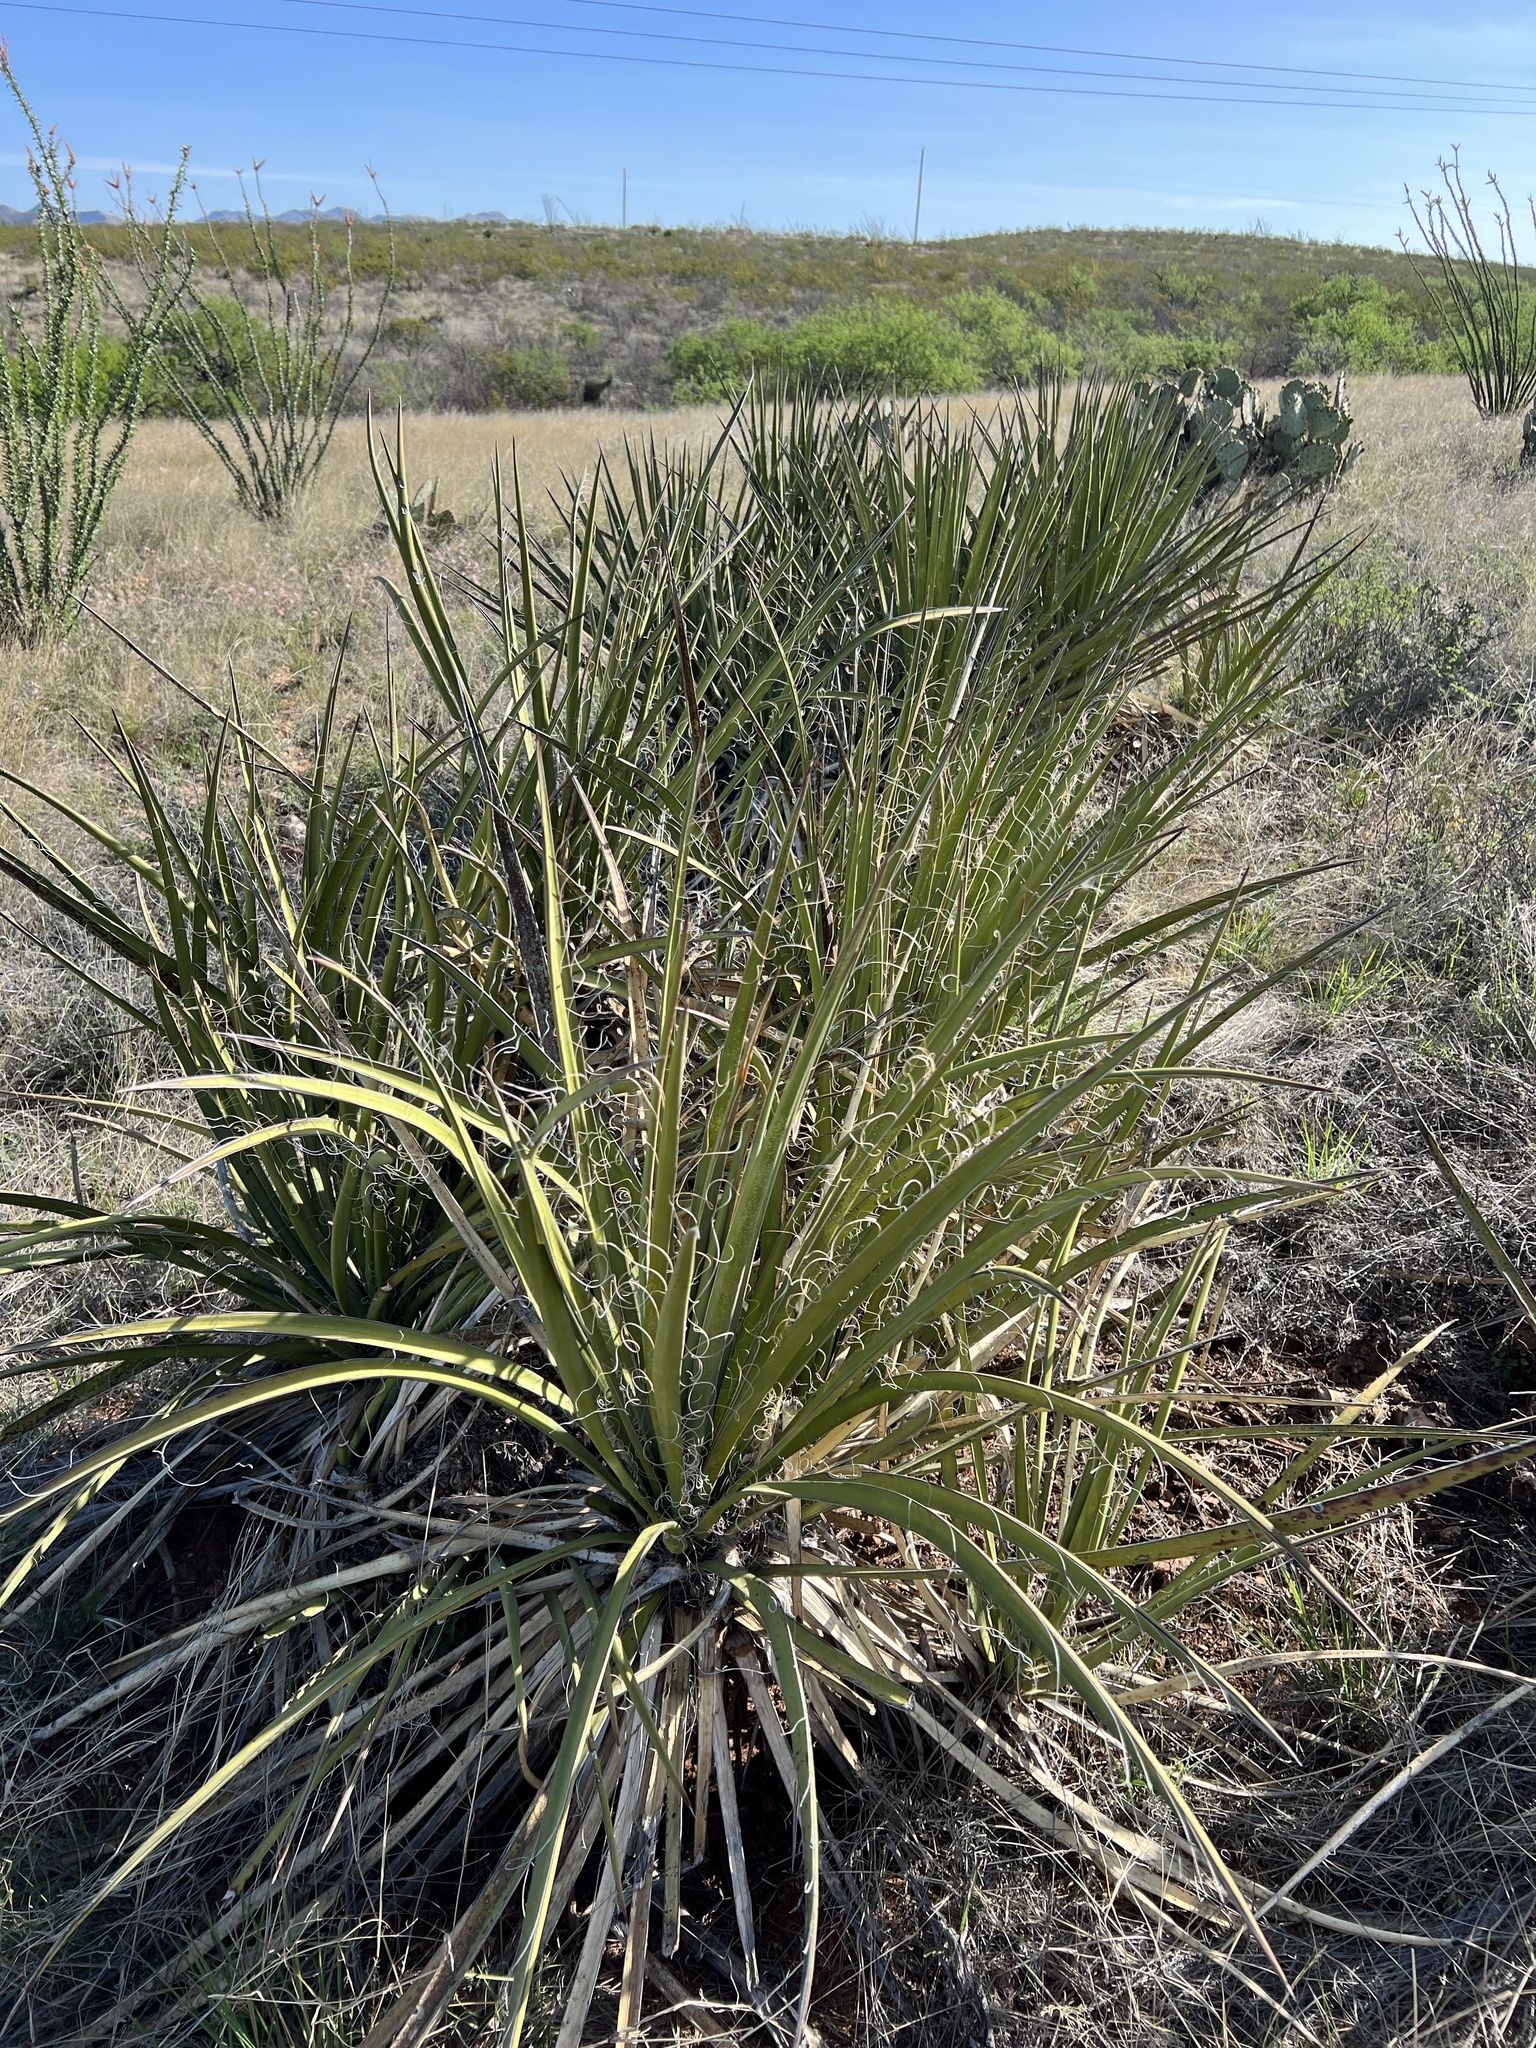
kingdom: Plantae
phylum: Tracheophyta
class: Liliopsida
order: Asparagales
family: Asparagaceae
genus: Yucca
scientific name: Yucca baccata
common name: Banana yucca
